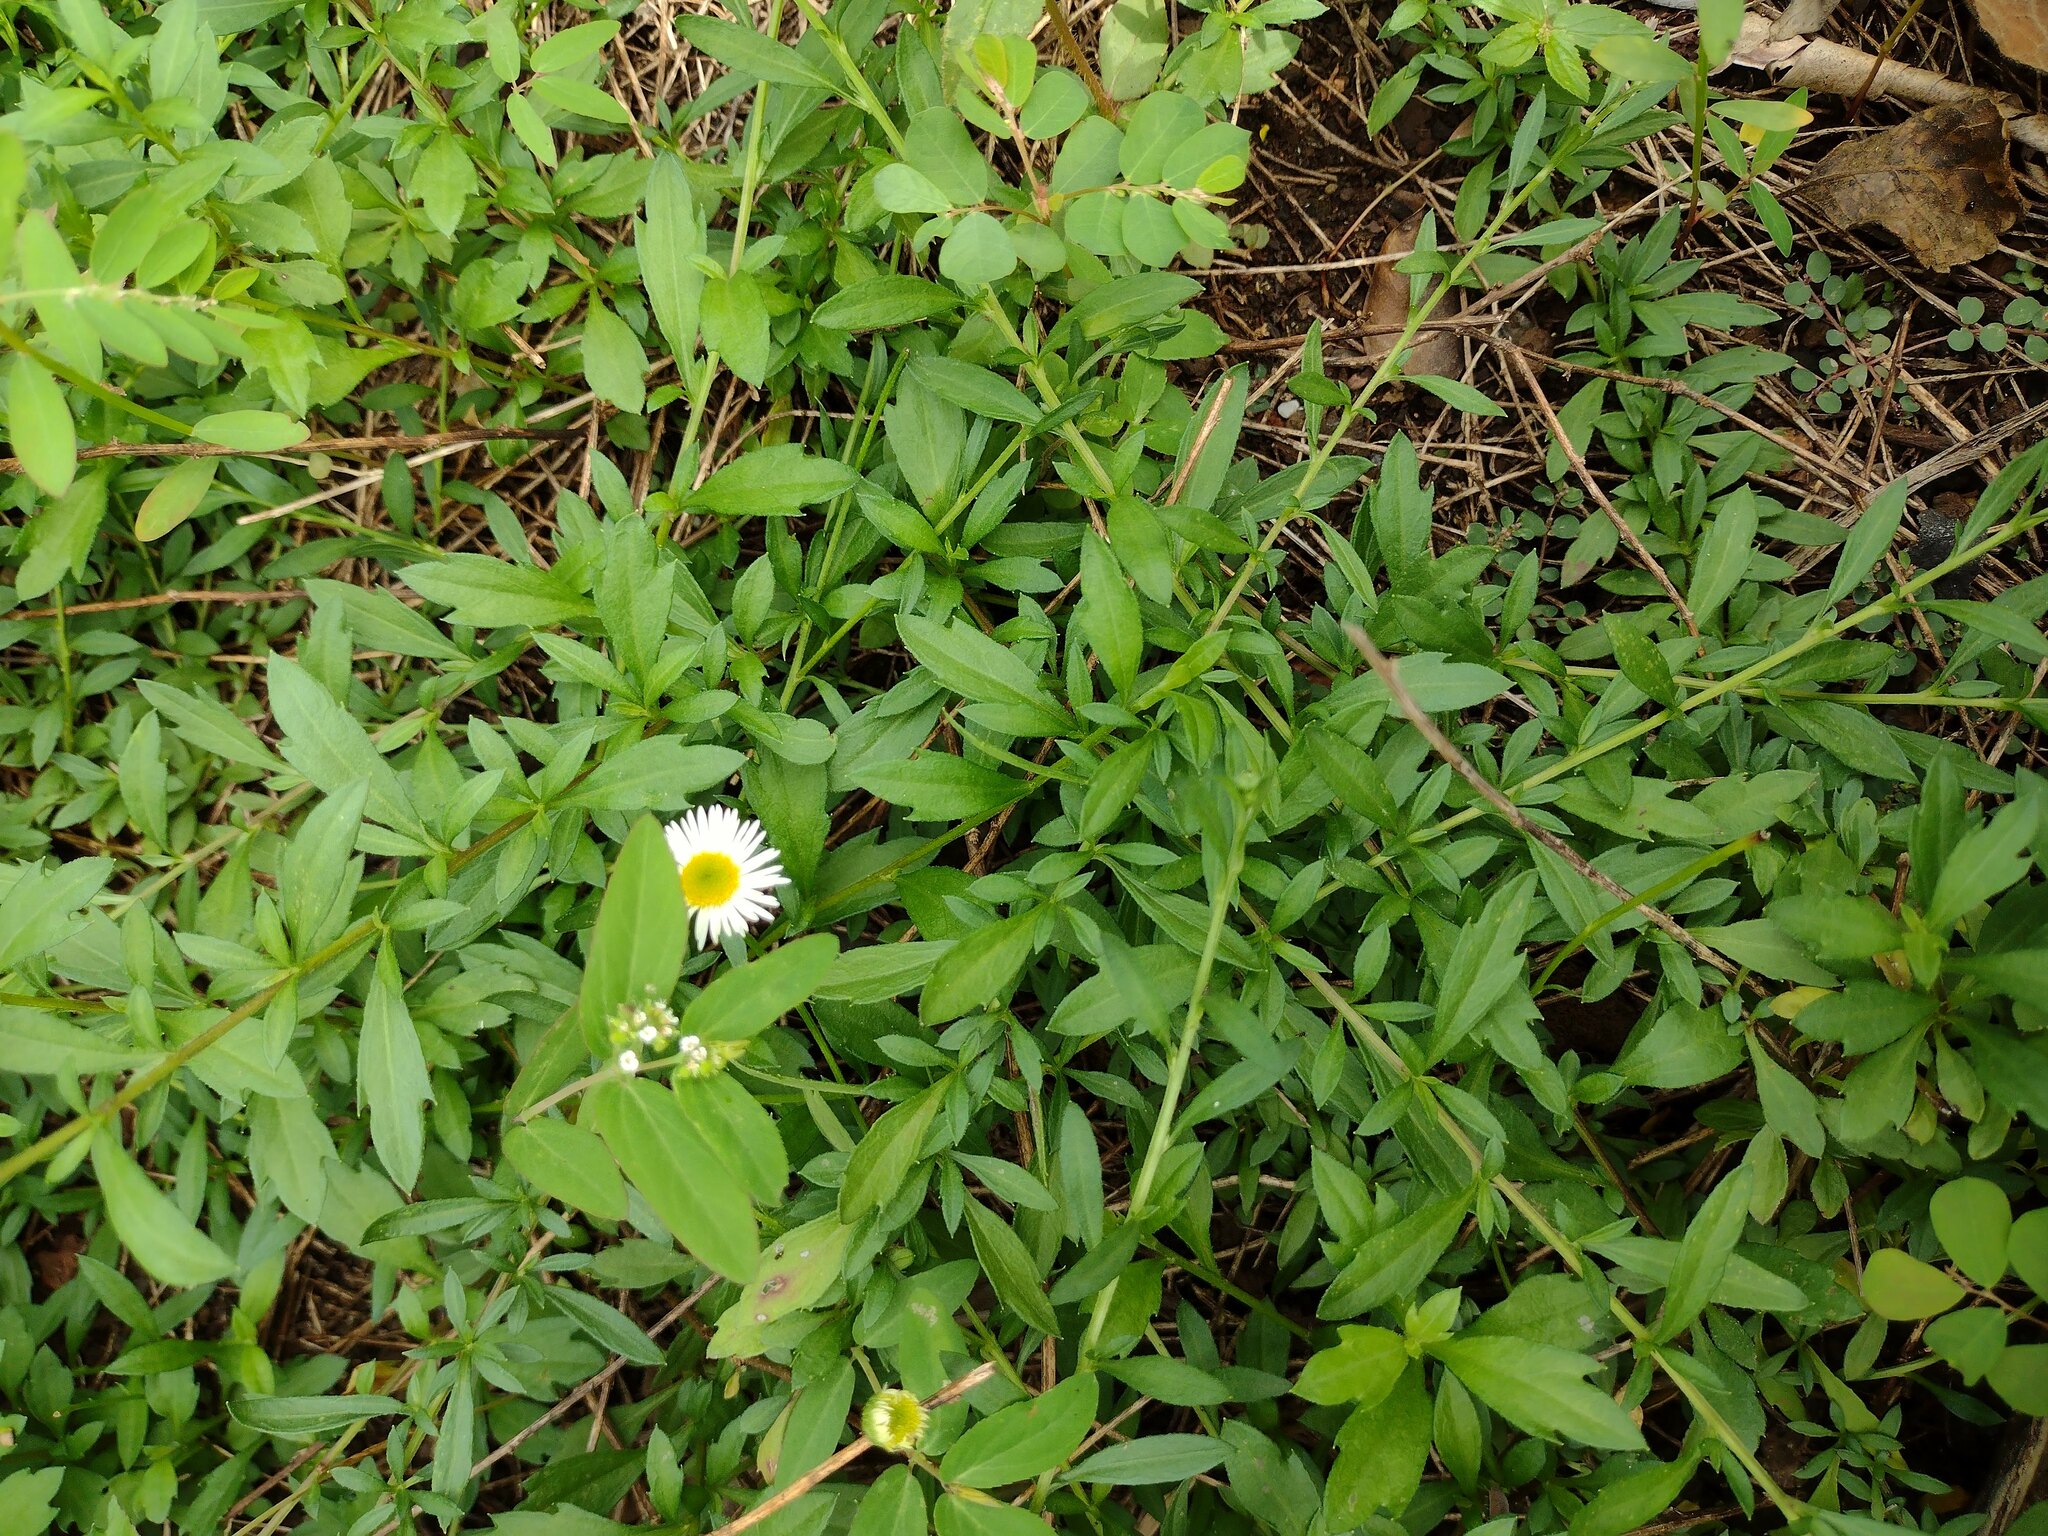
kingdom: Plantae
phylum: Tracheophyta
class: Magnoliopsida
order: Asterales
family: Asteraceae
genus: Erigeron
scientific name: Erigeron karvinskianus
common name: Mexican fleabane
